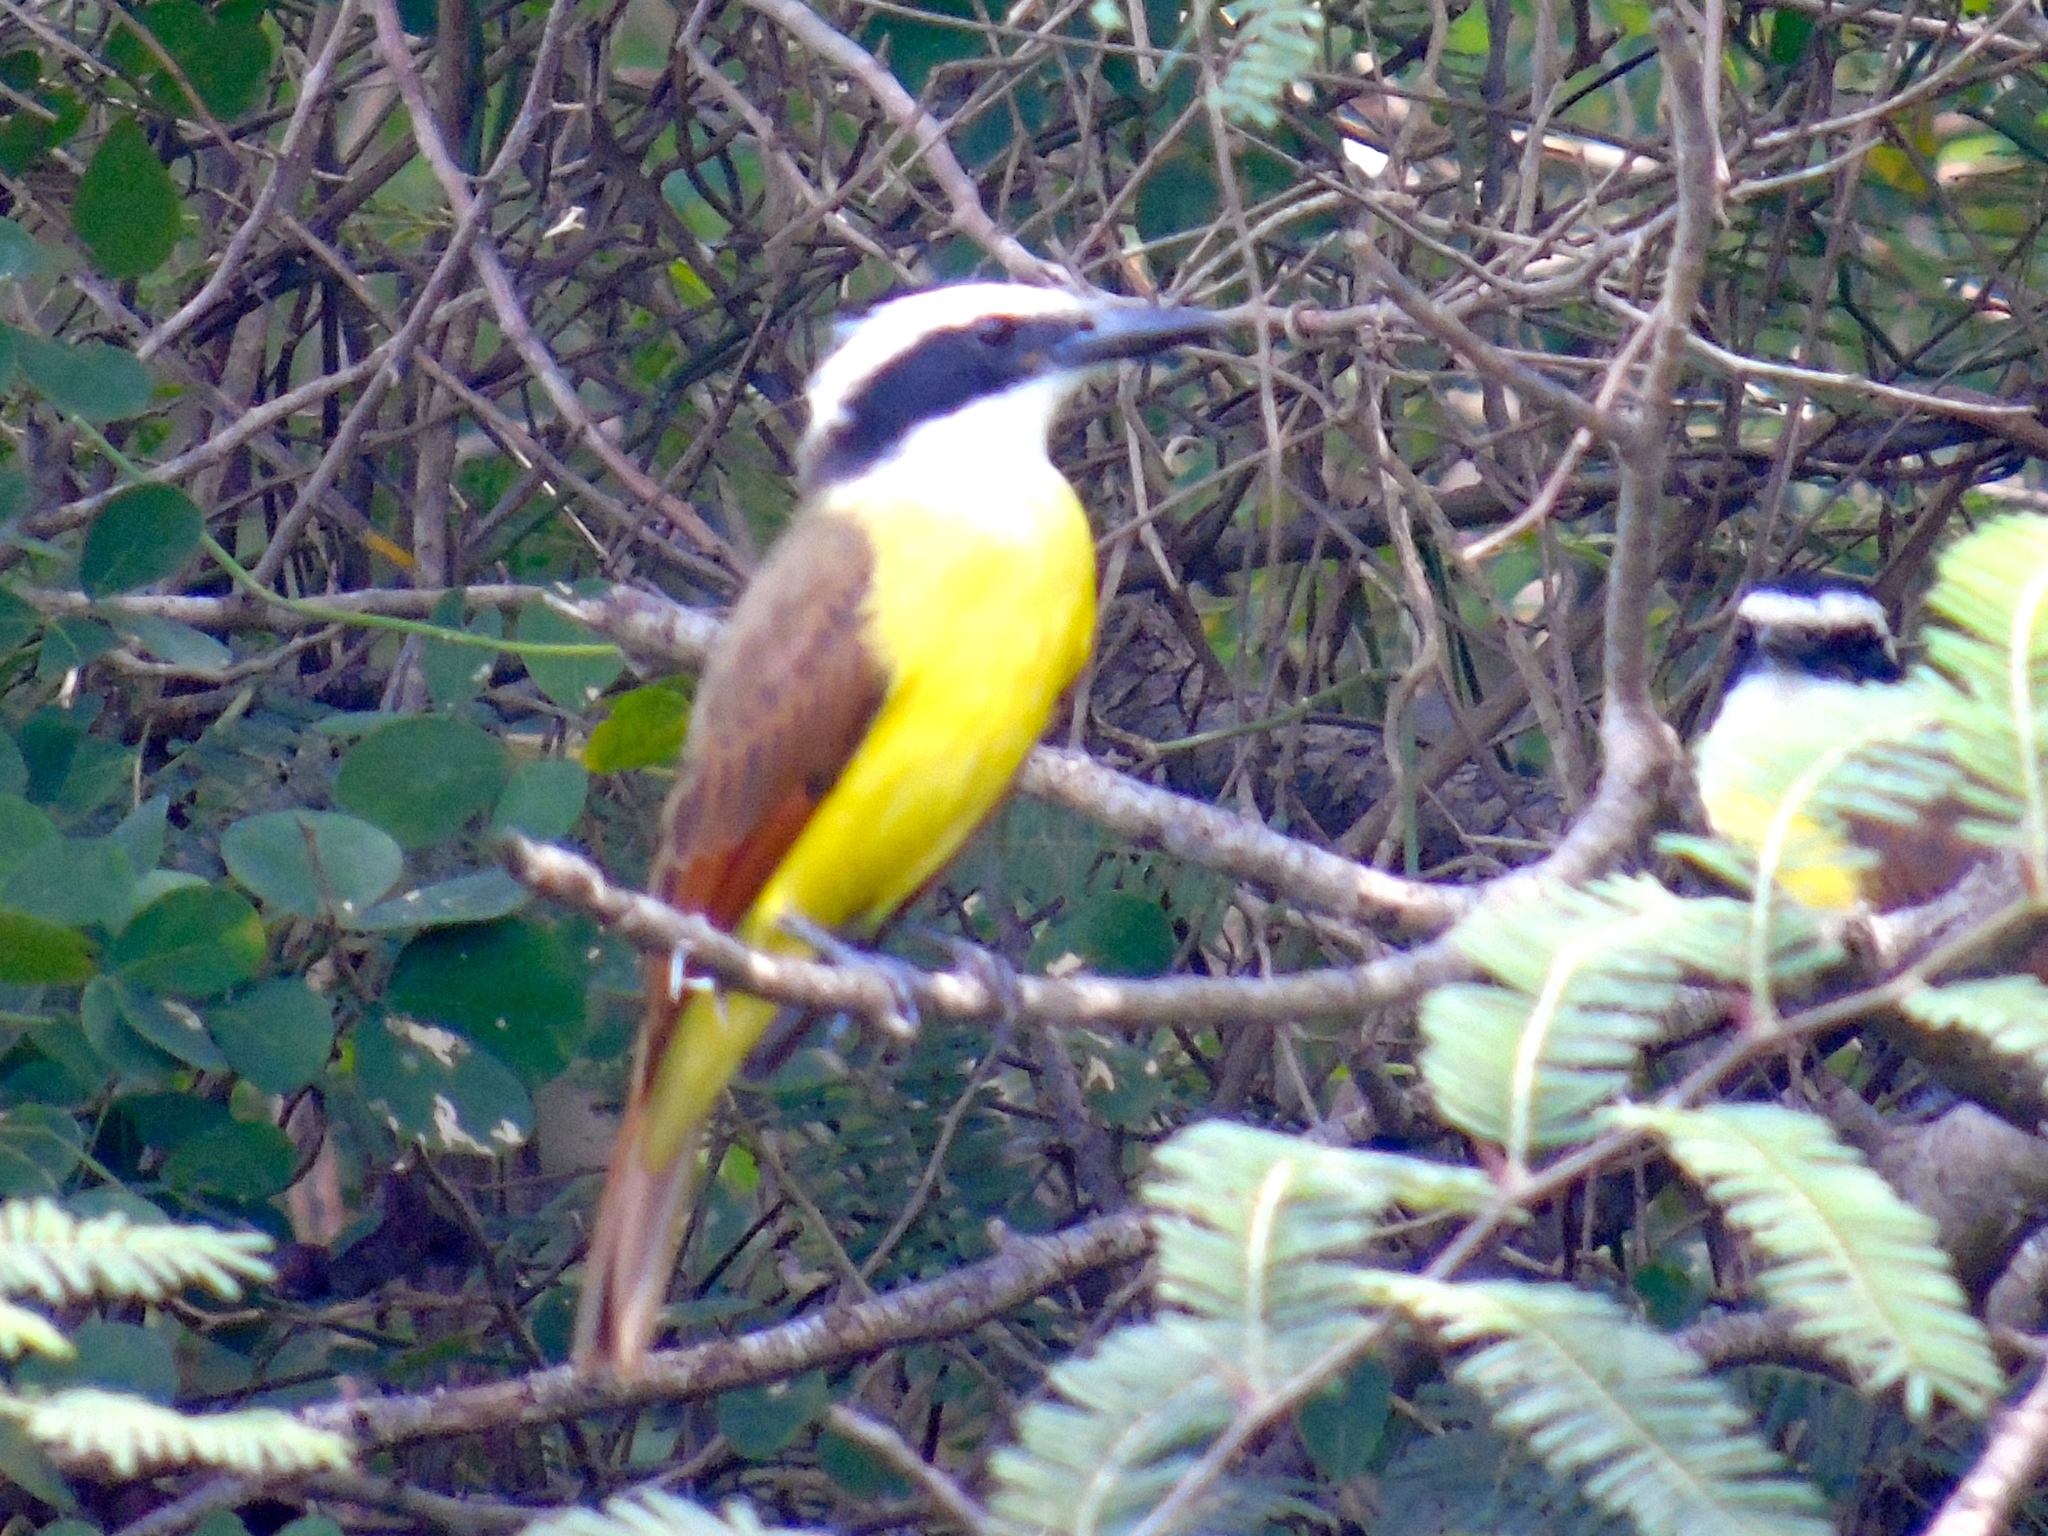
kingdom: Animalia
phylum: Chordata
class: Aves
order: Passeriformes
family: Tyrannidae
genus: Pitangus
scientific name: Pitangus sulphuratus
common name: Great kiskadee
